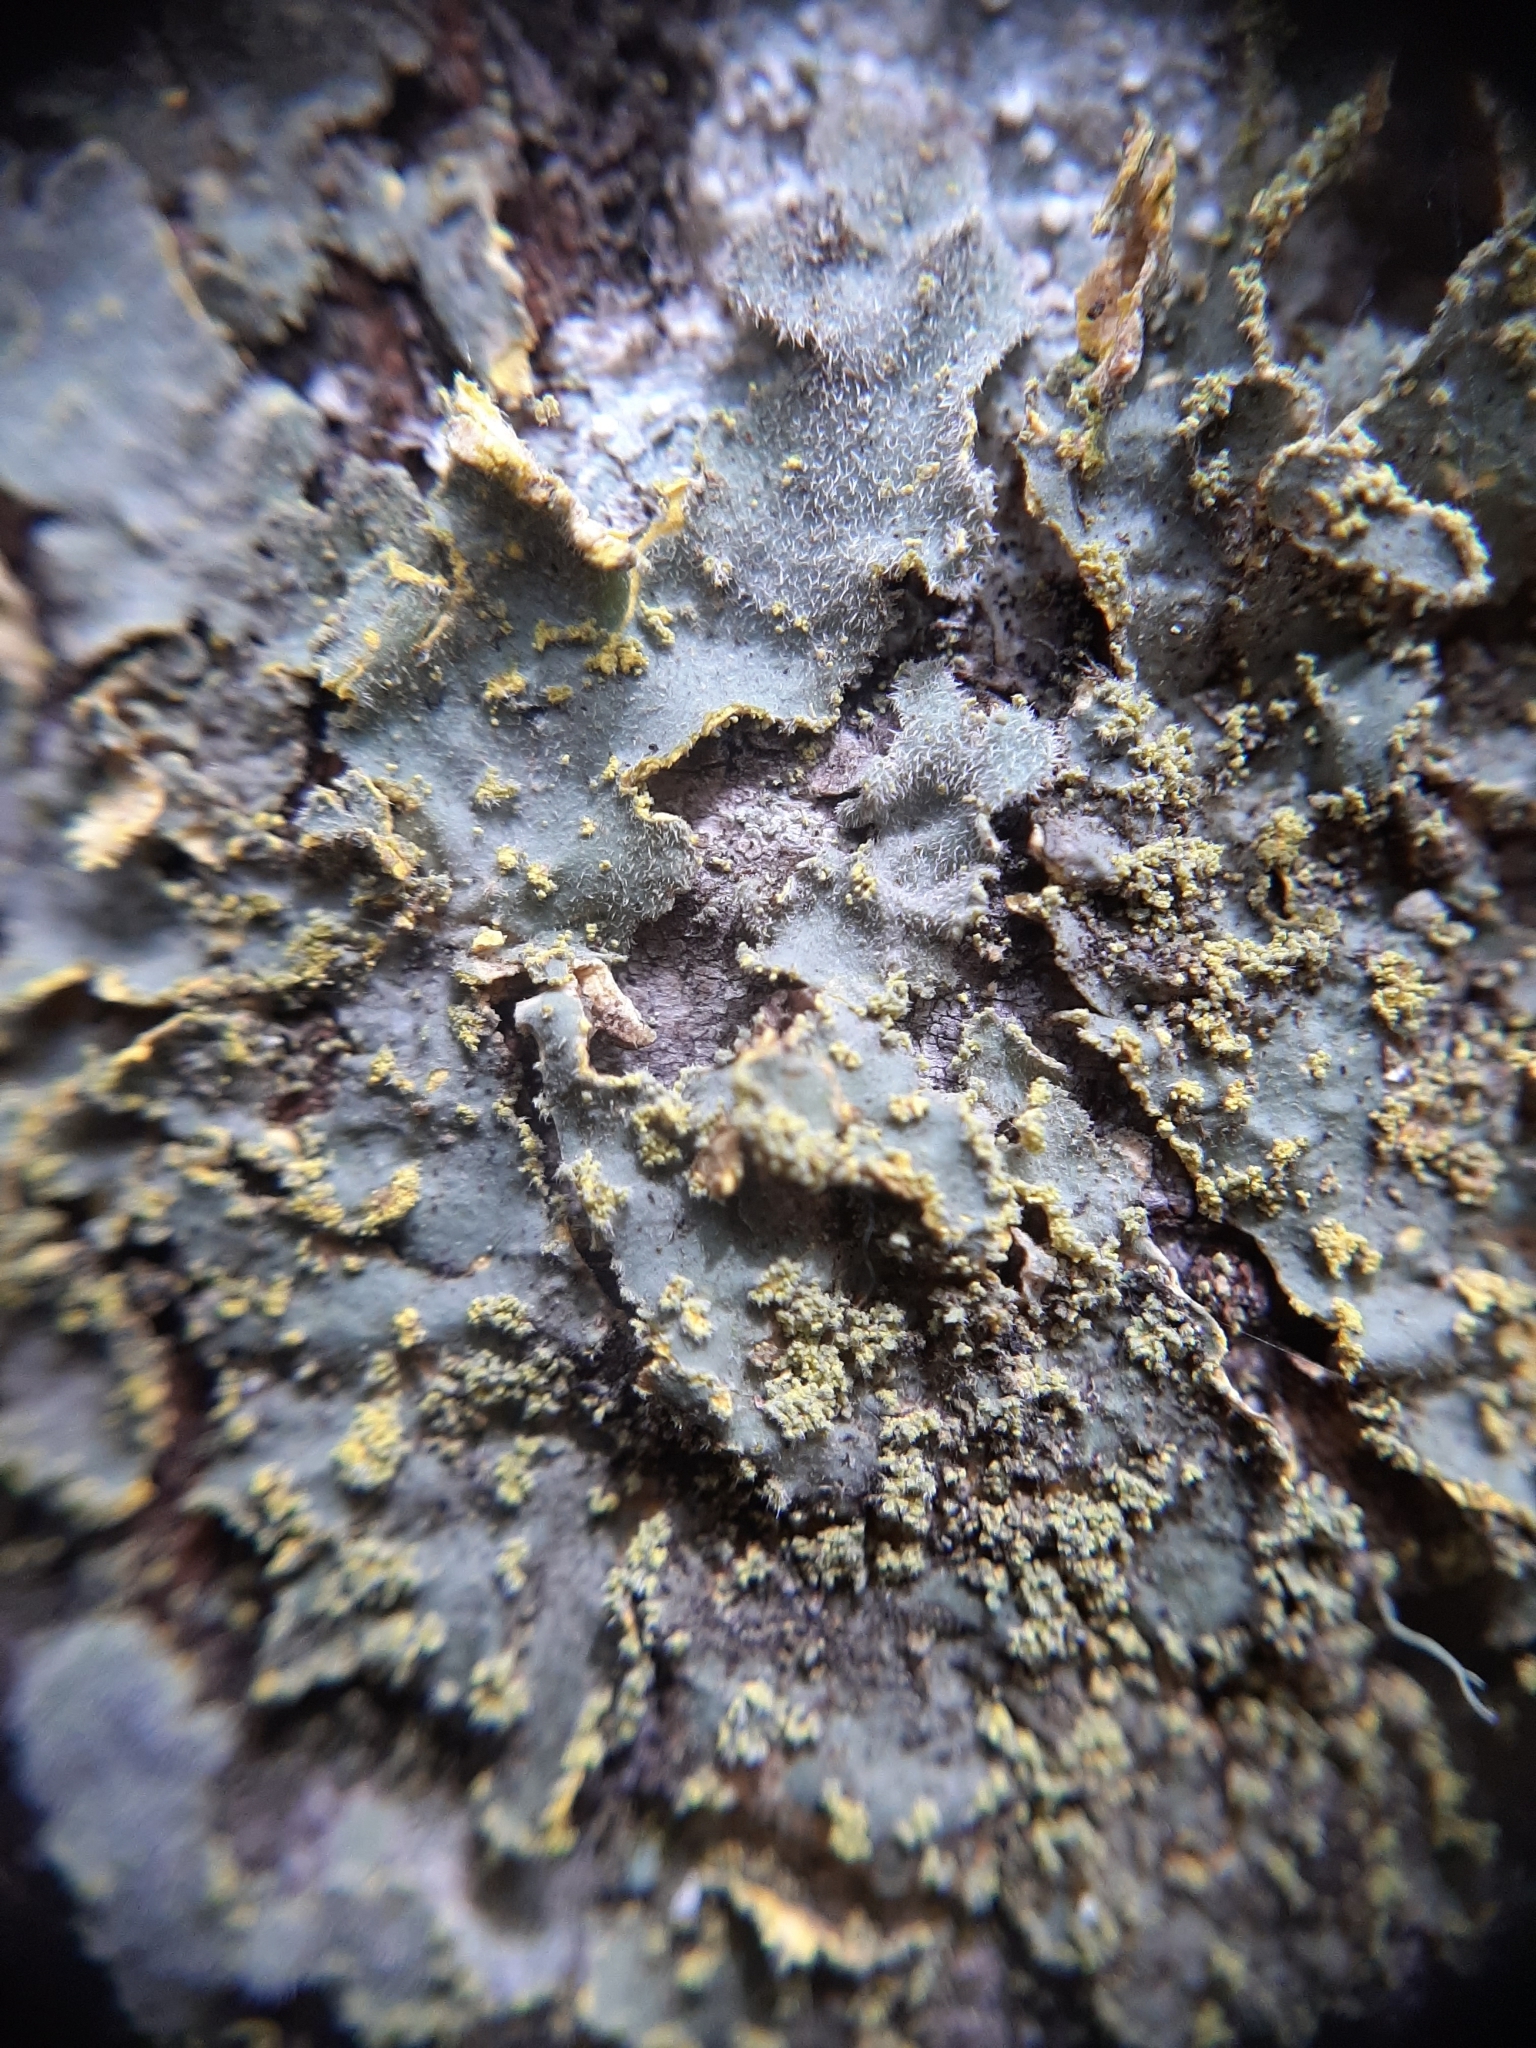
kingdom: Fungi
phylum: Ascomycota
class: Lecanoromycetes
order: Peltigerales
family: Lobariaceae
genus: Pseudocyphellaria
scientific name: Pseudocyphellaria rubella
